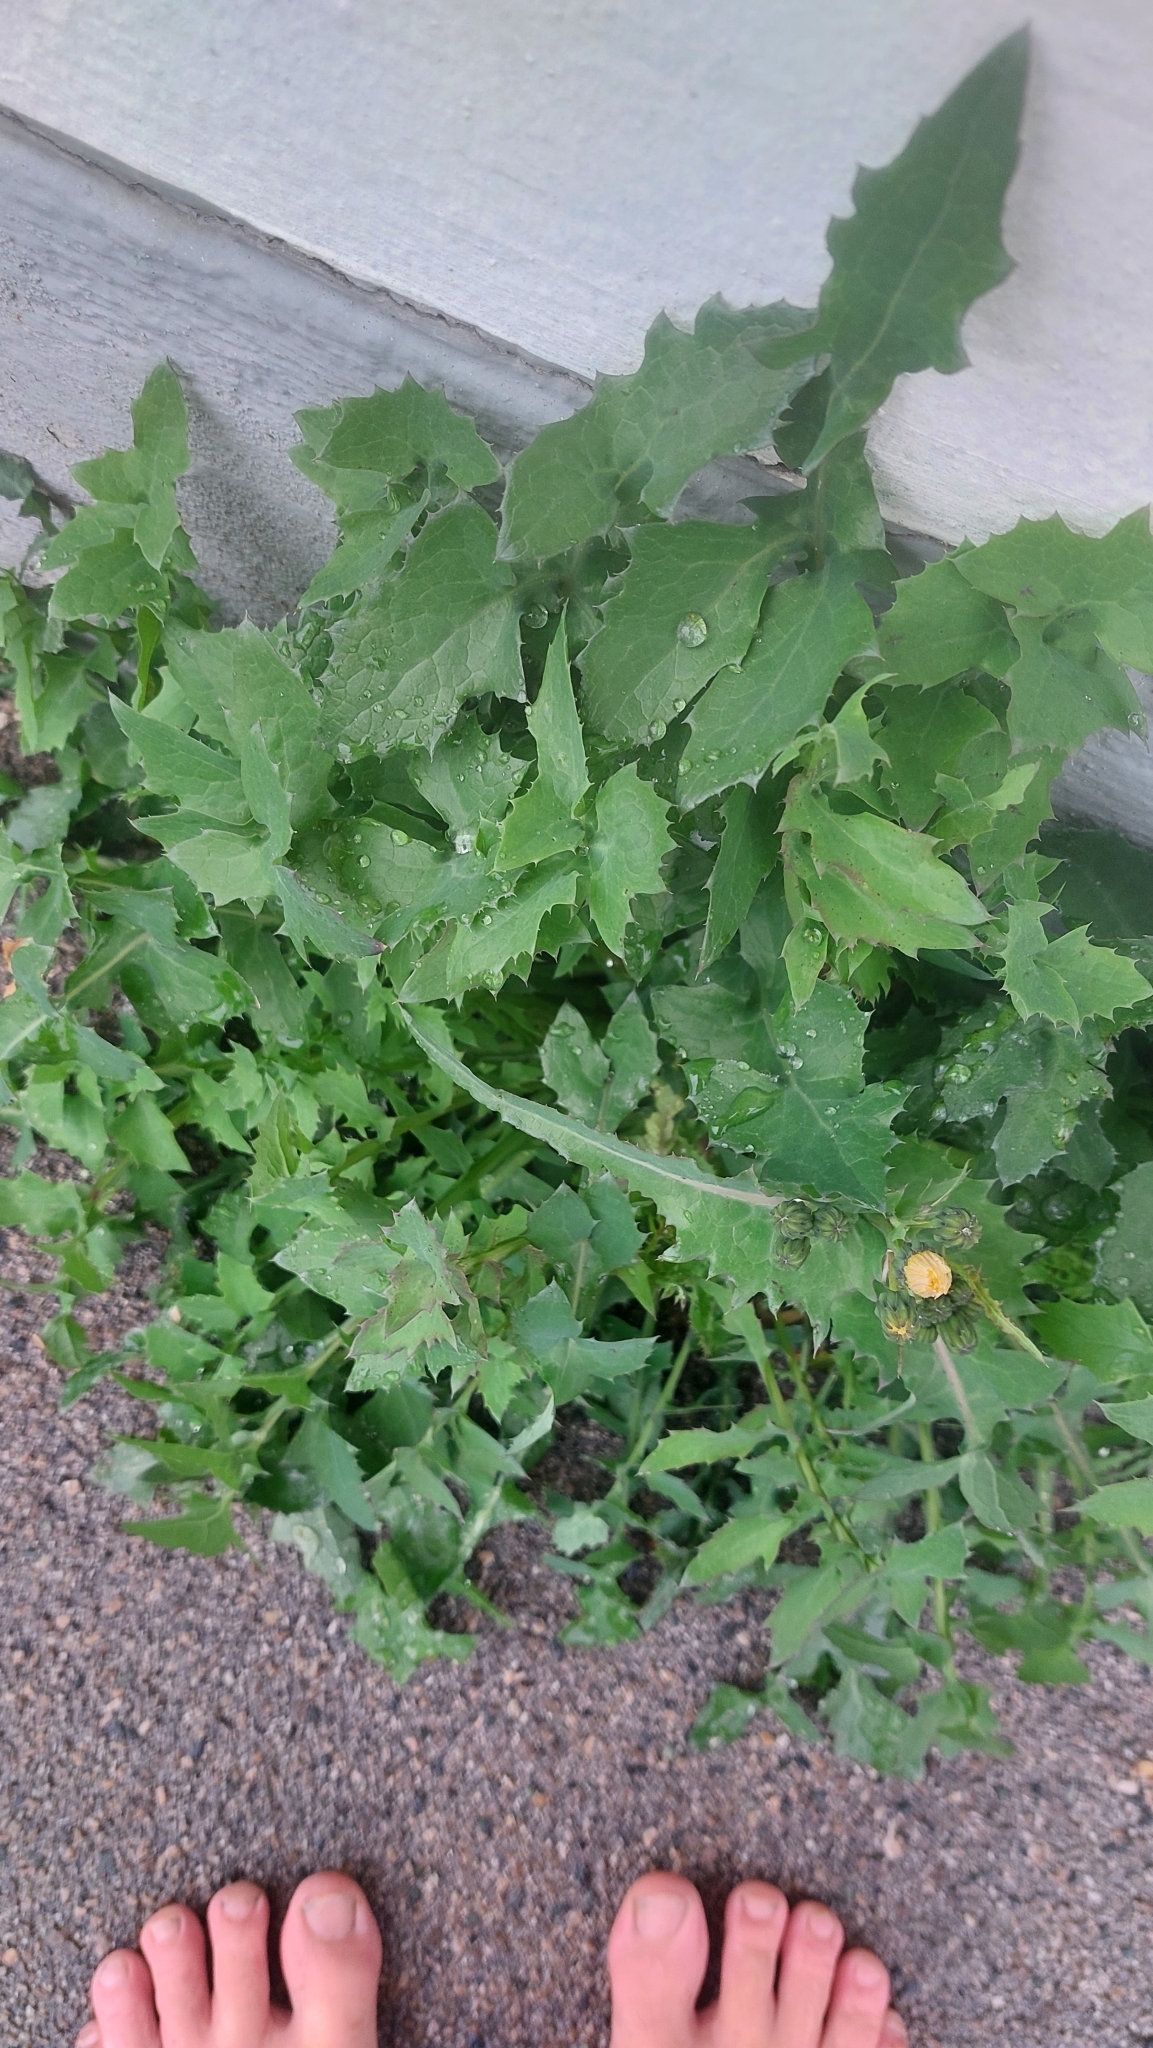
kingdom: Plantae
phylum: Tracheophyta
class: Magnoliopsida
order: Asterales
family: Asteraceae
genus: Sonchus
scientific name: Sonchus oleraceus
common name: Common sowthistle
